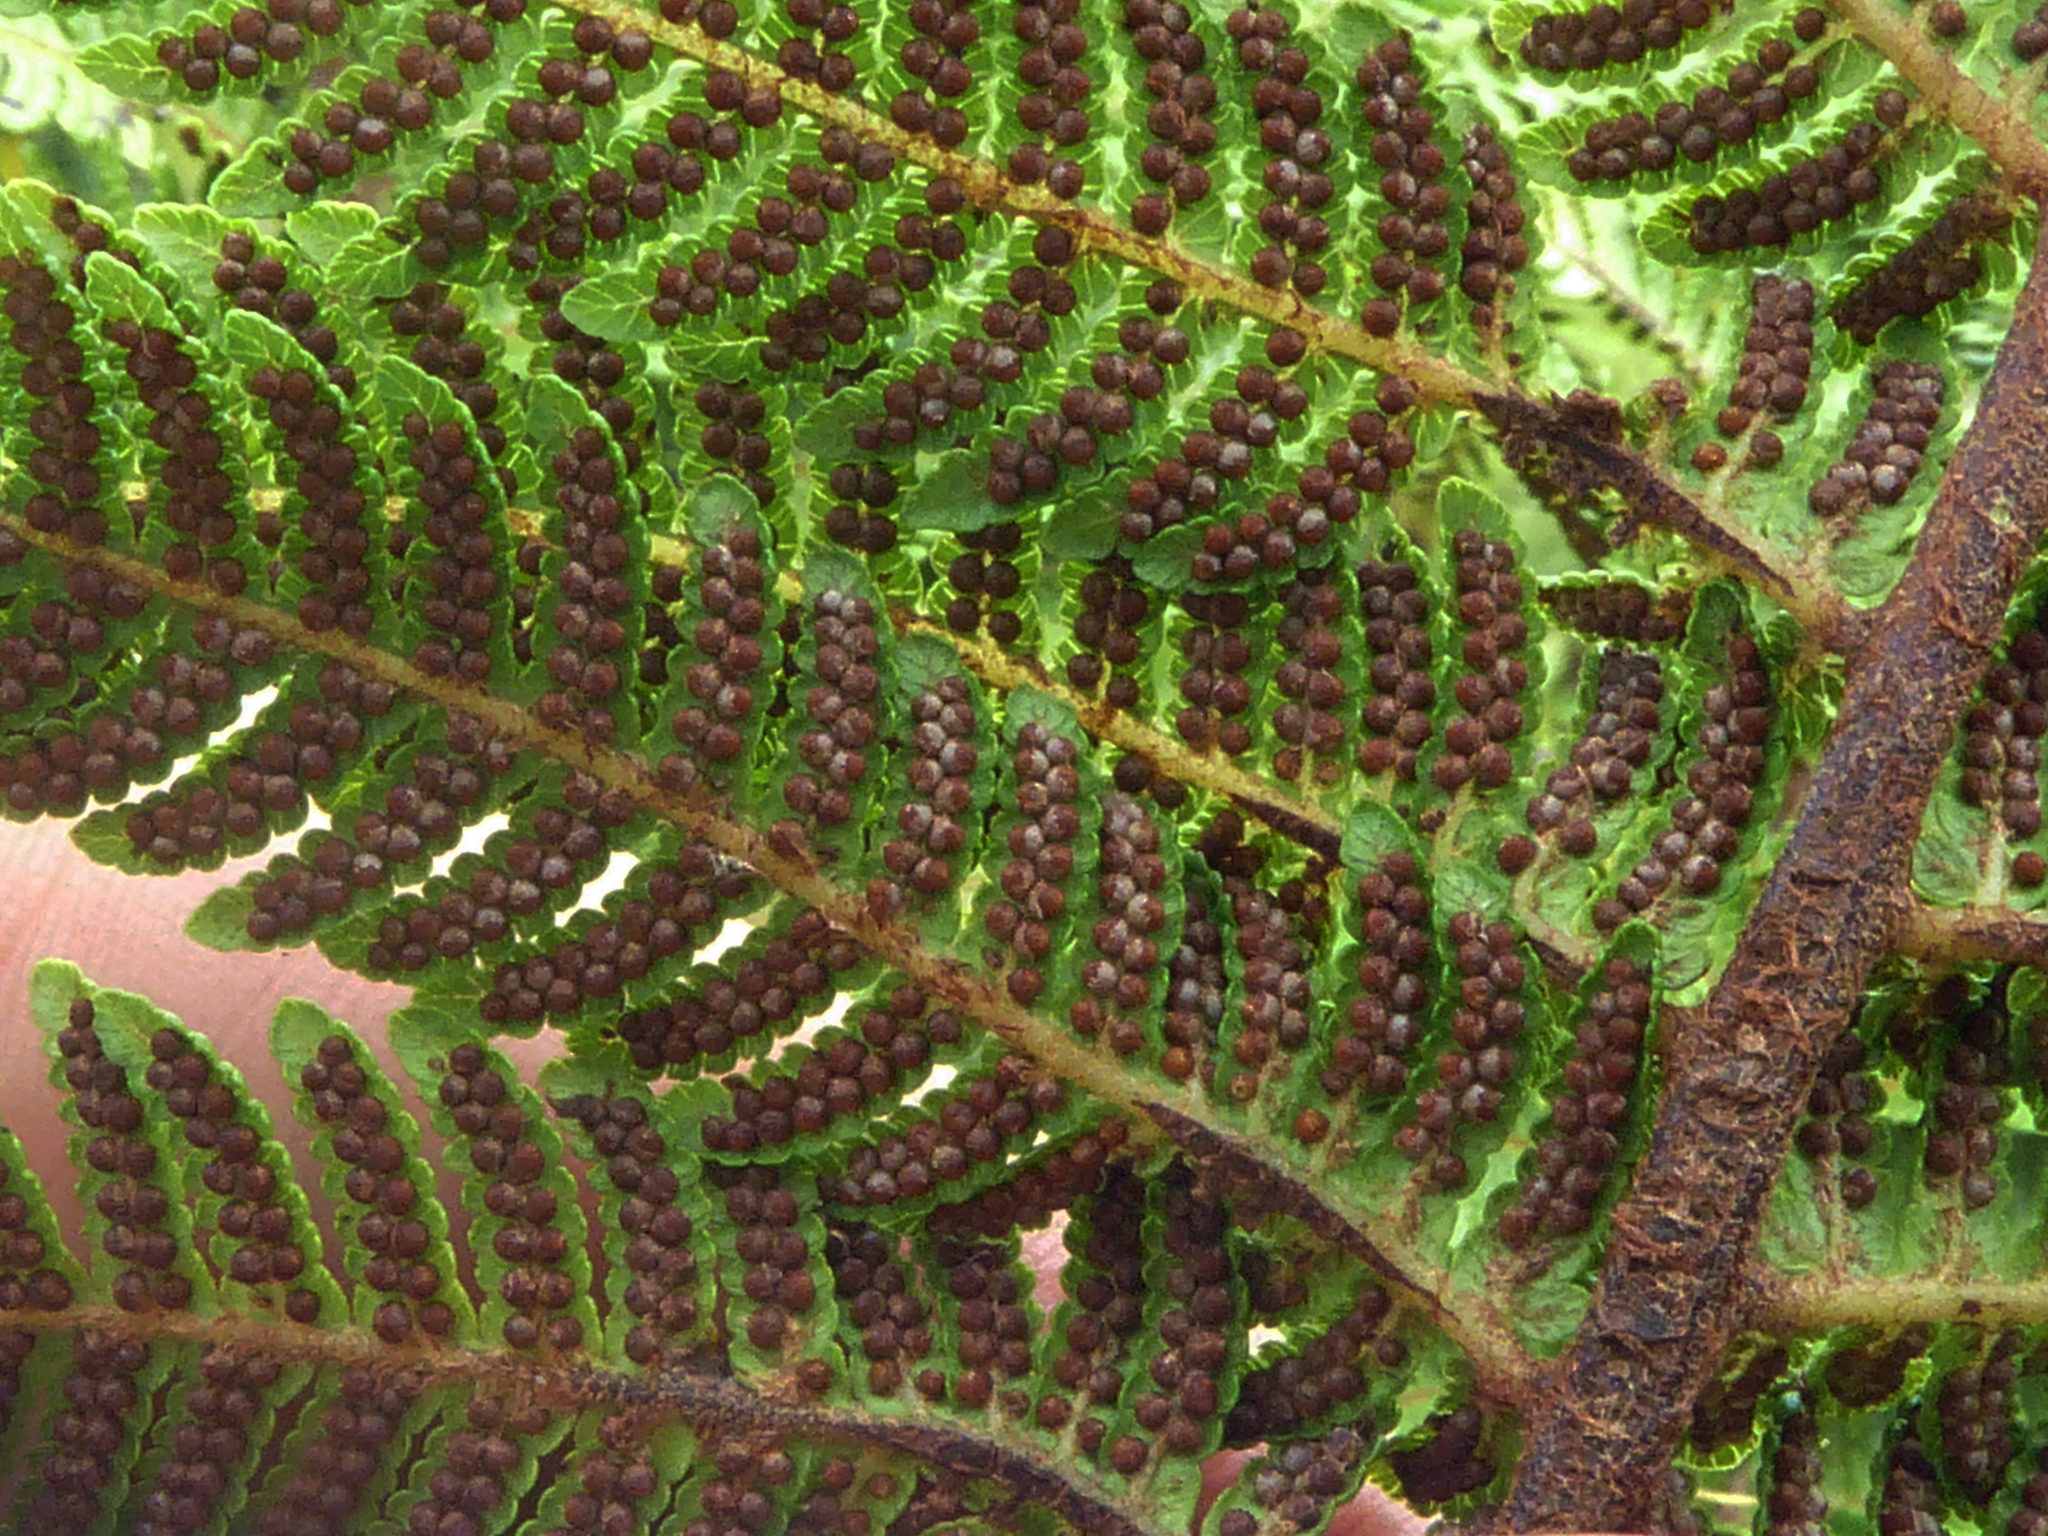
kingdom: Plantae
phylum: Tracheophyta
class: Polypodiopsida
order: Cyatheales
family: Cyatheaceae
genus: Sphaeropteris
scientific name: Sphaeropteris parksiae
